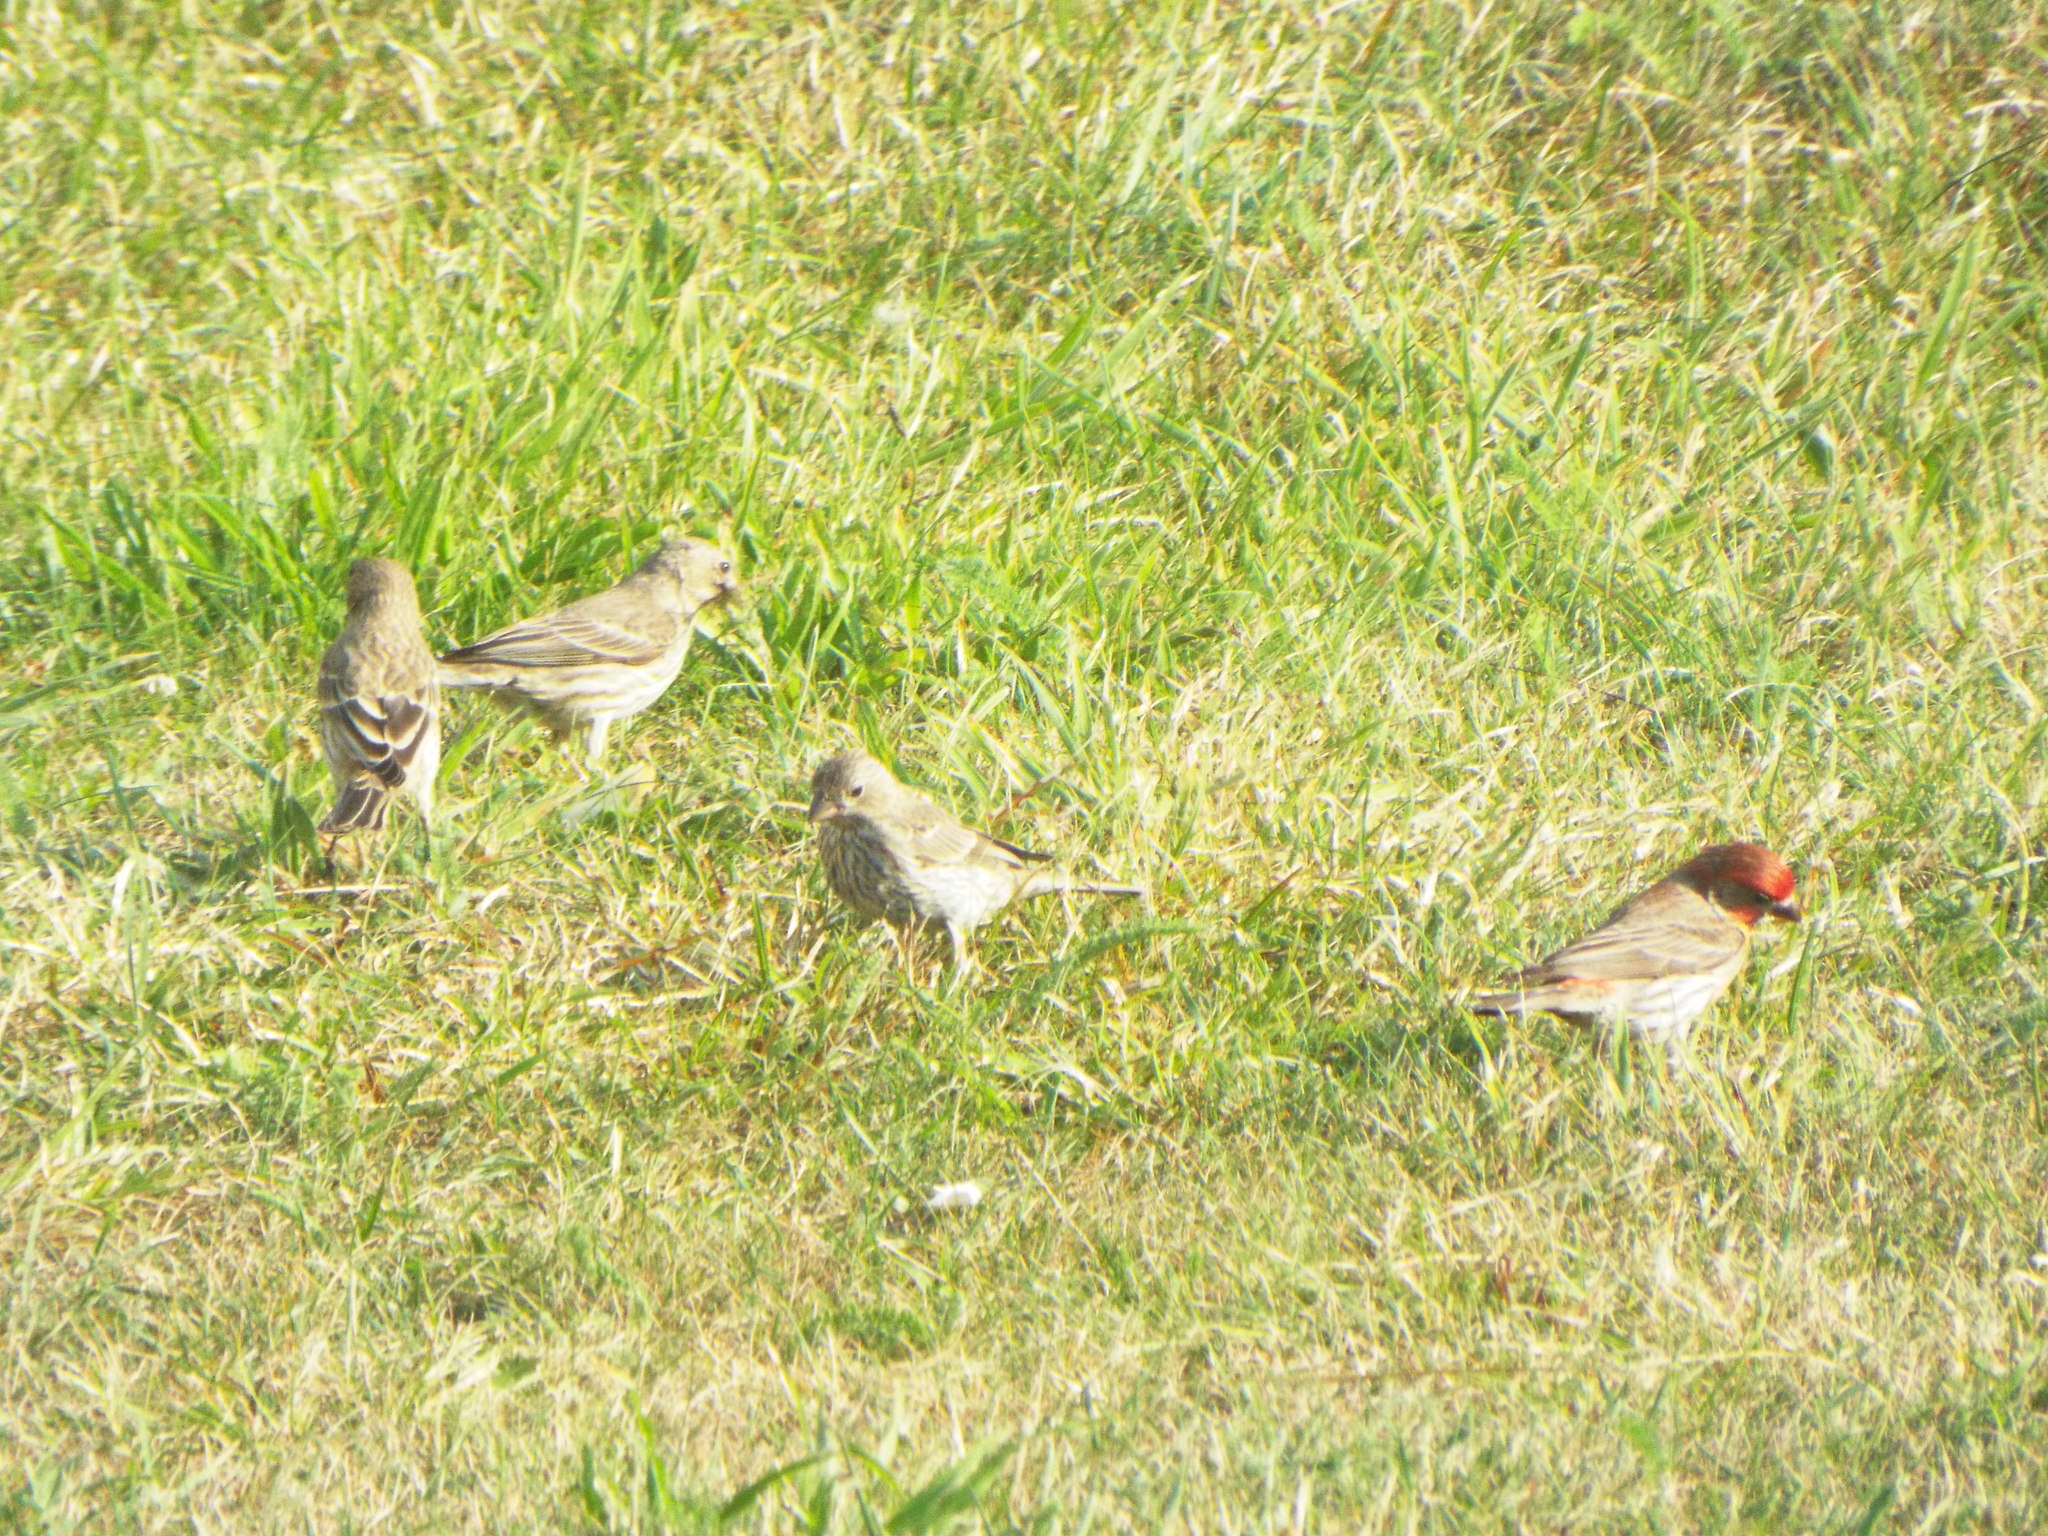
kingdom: Animalia
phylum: Chordata
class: Aves
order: Passeriformes
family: Fringillidae
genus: Haemorhous
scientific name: Haemorhous mexicanus
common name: House finch
